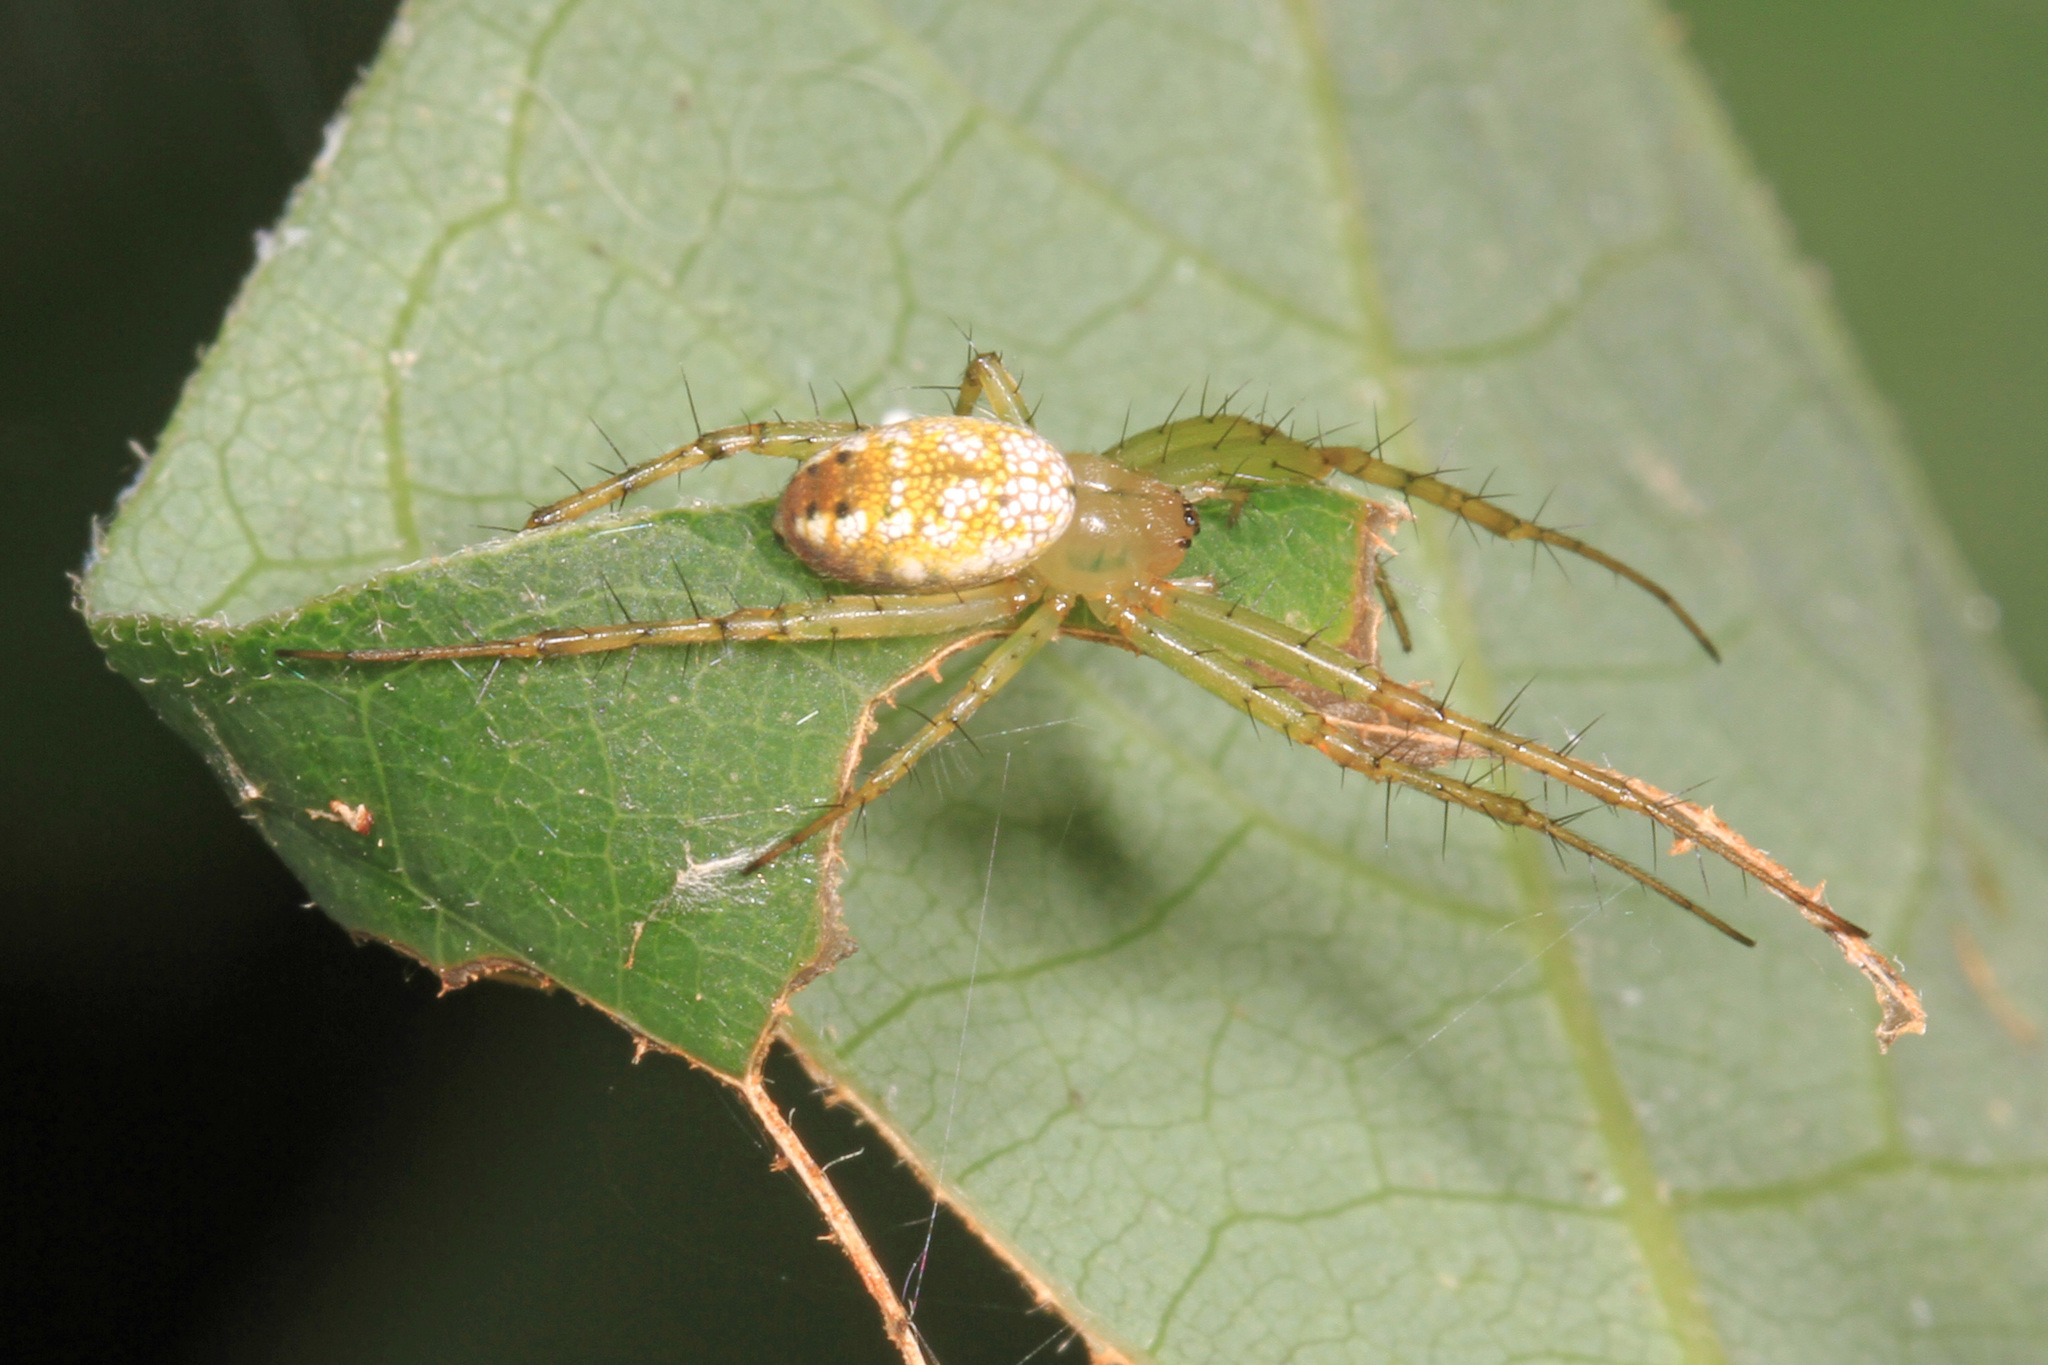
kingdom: Animalia
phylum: Arthropoda
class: Arachnida
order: Araneae
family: Araneidae
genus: Mangora
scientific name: Mangora maculata
